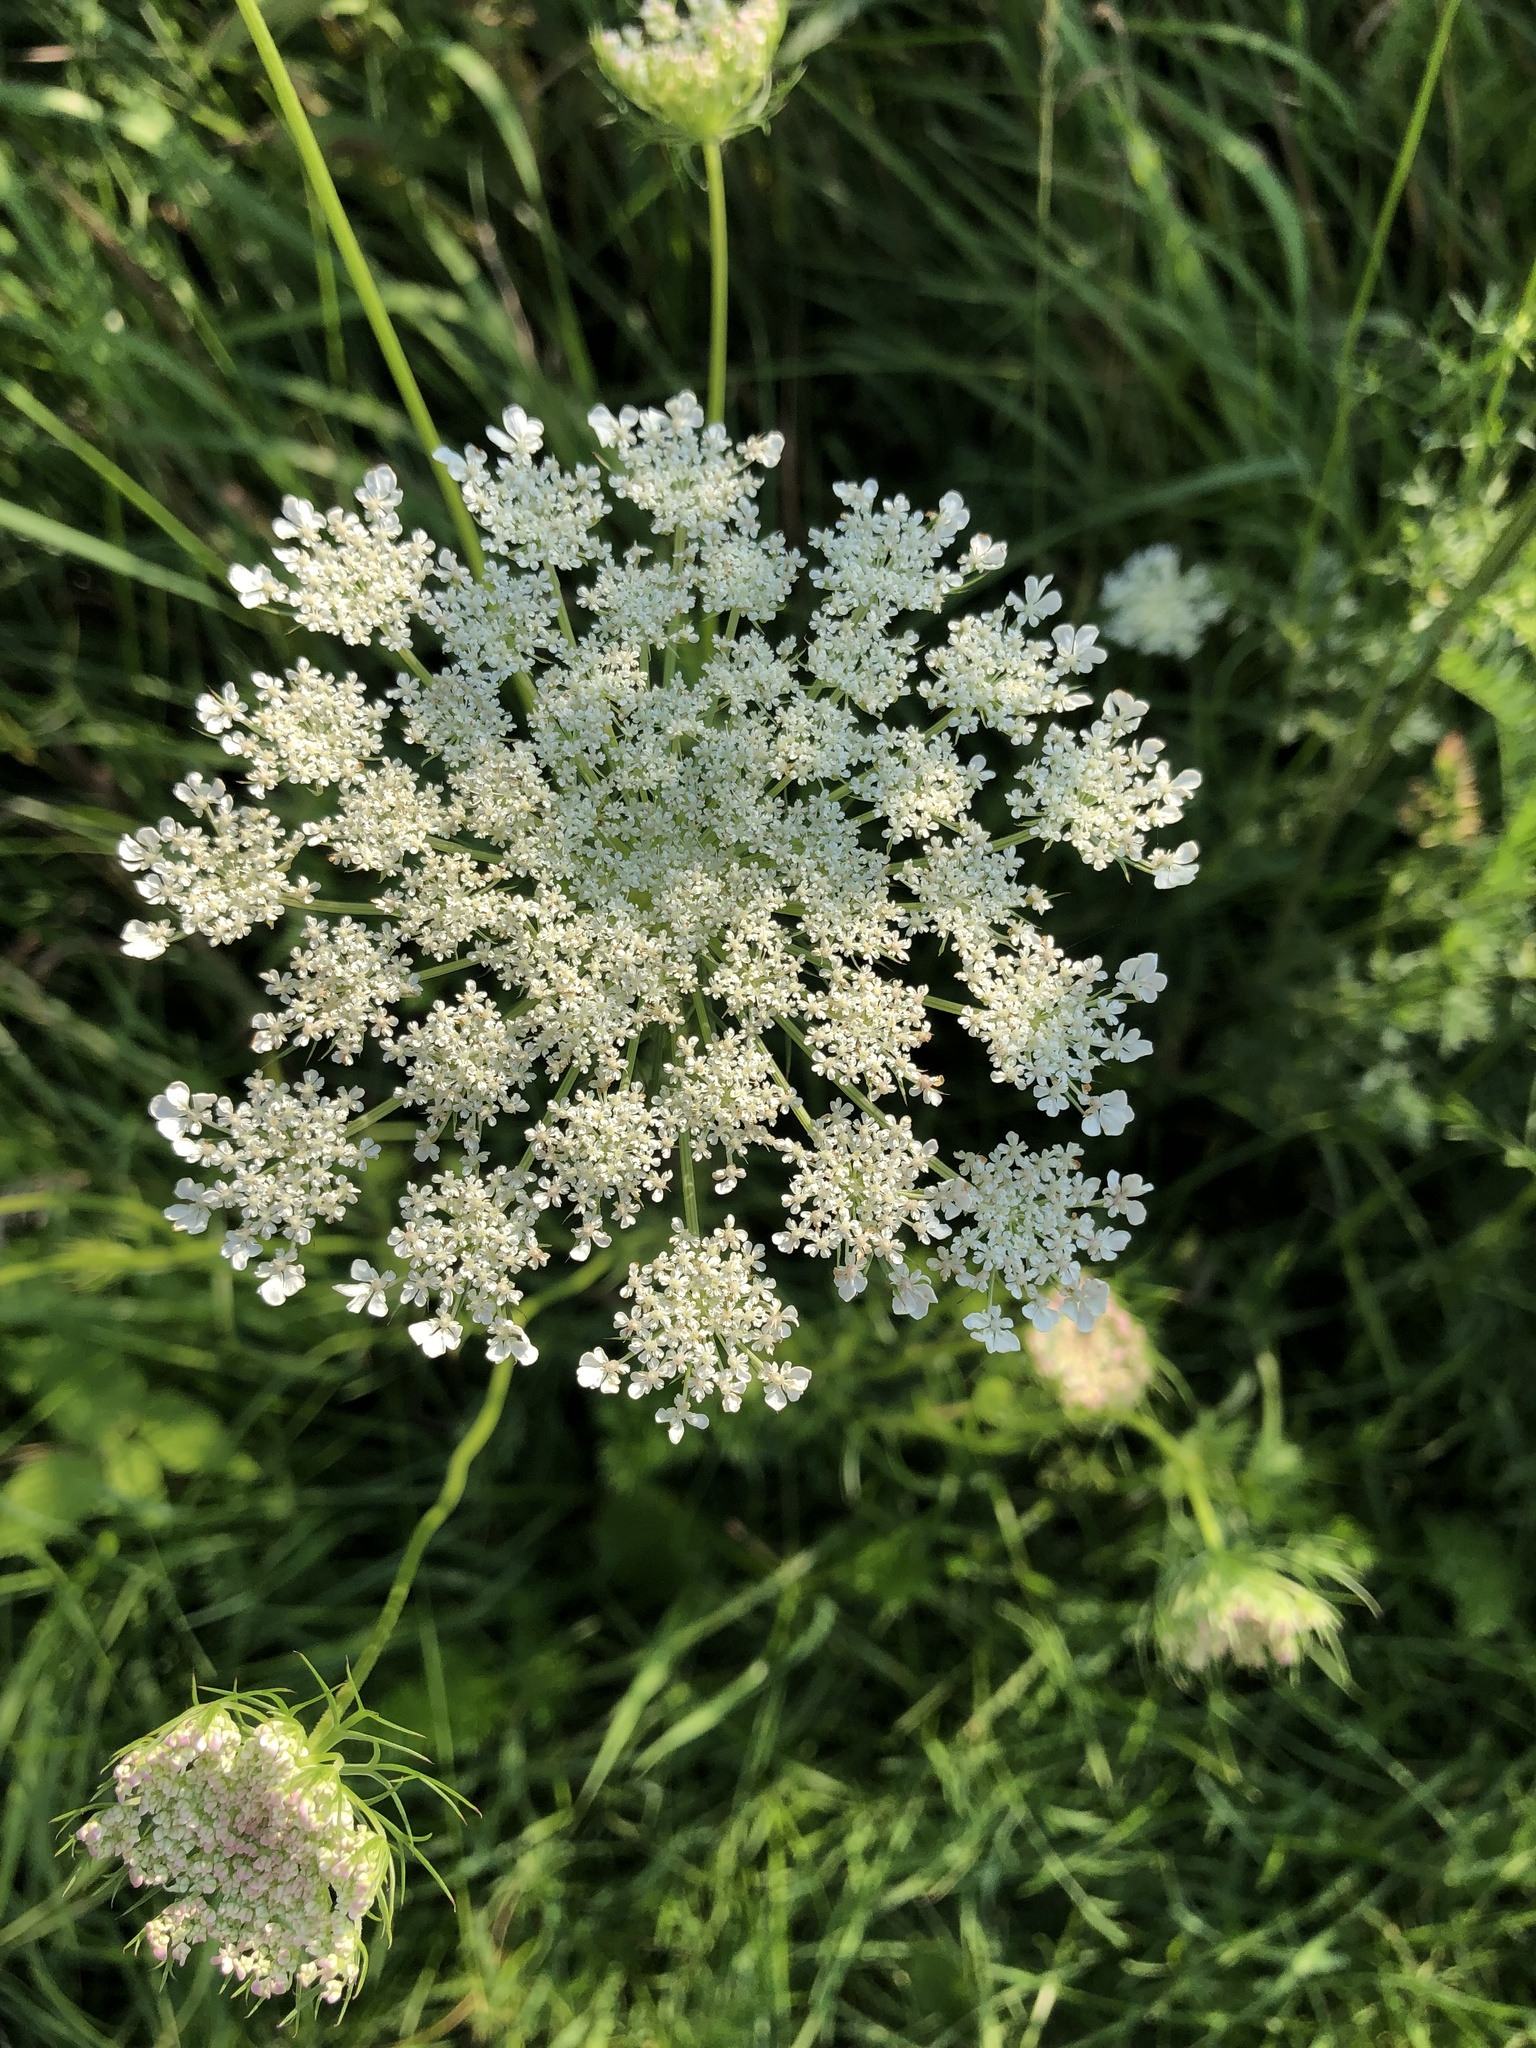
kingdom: Plantae
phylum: Tracheophyta
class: Magnoliopsida
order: Apiales
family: Apiaceae
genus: Daucus
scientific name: Daucus carota
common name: Wild carrot
